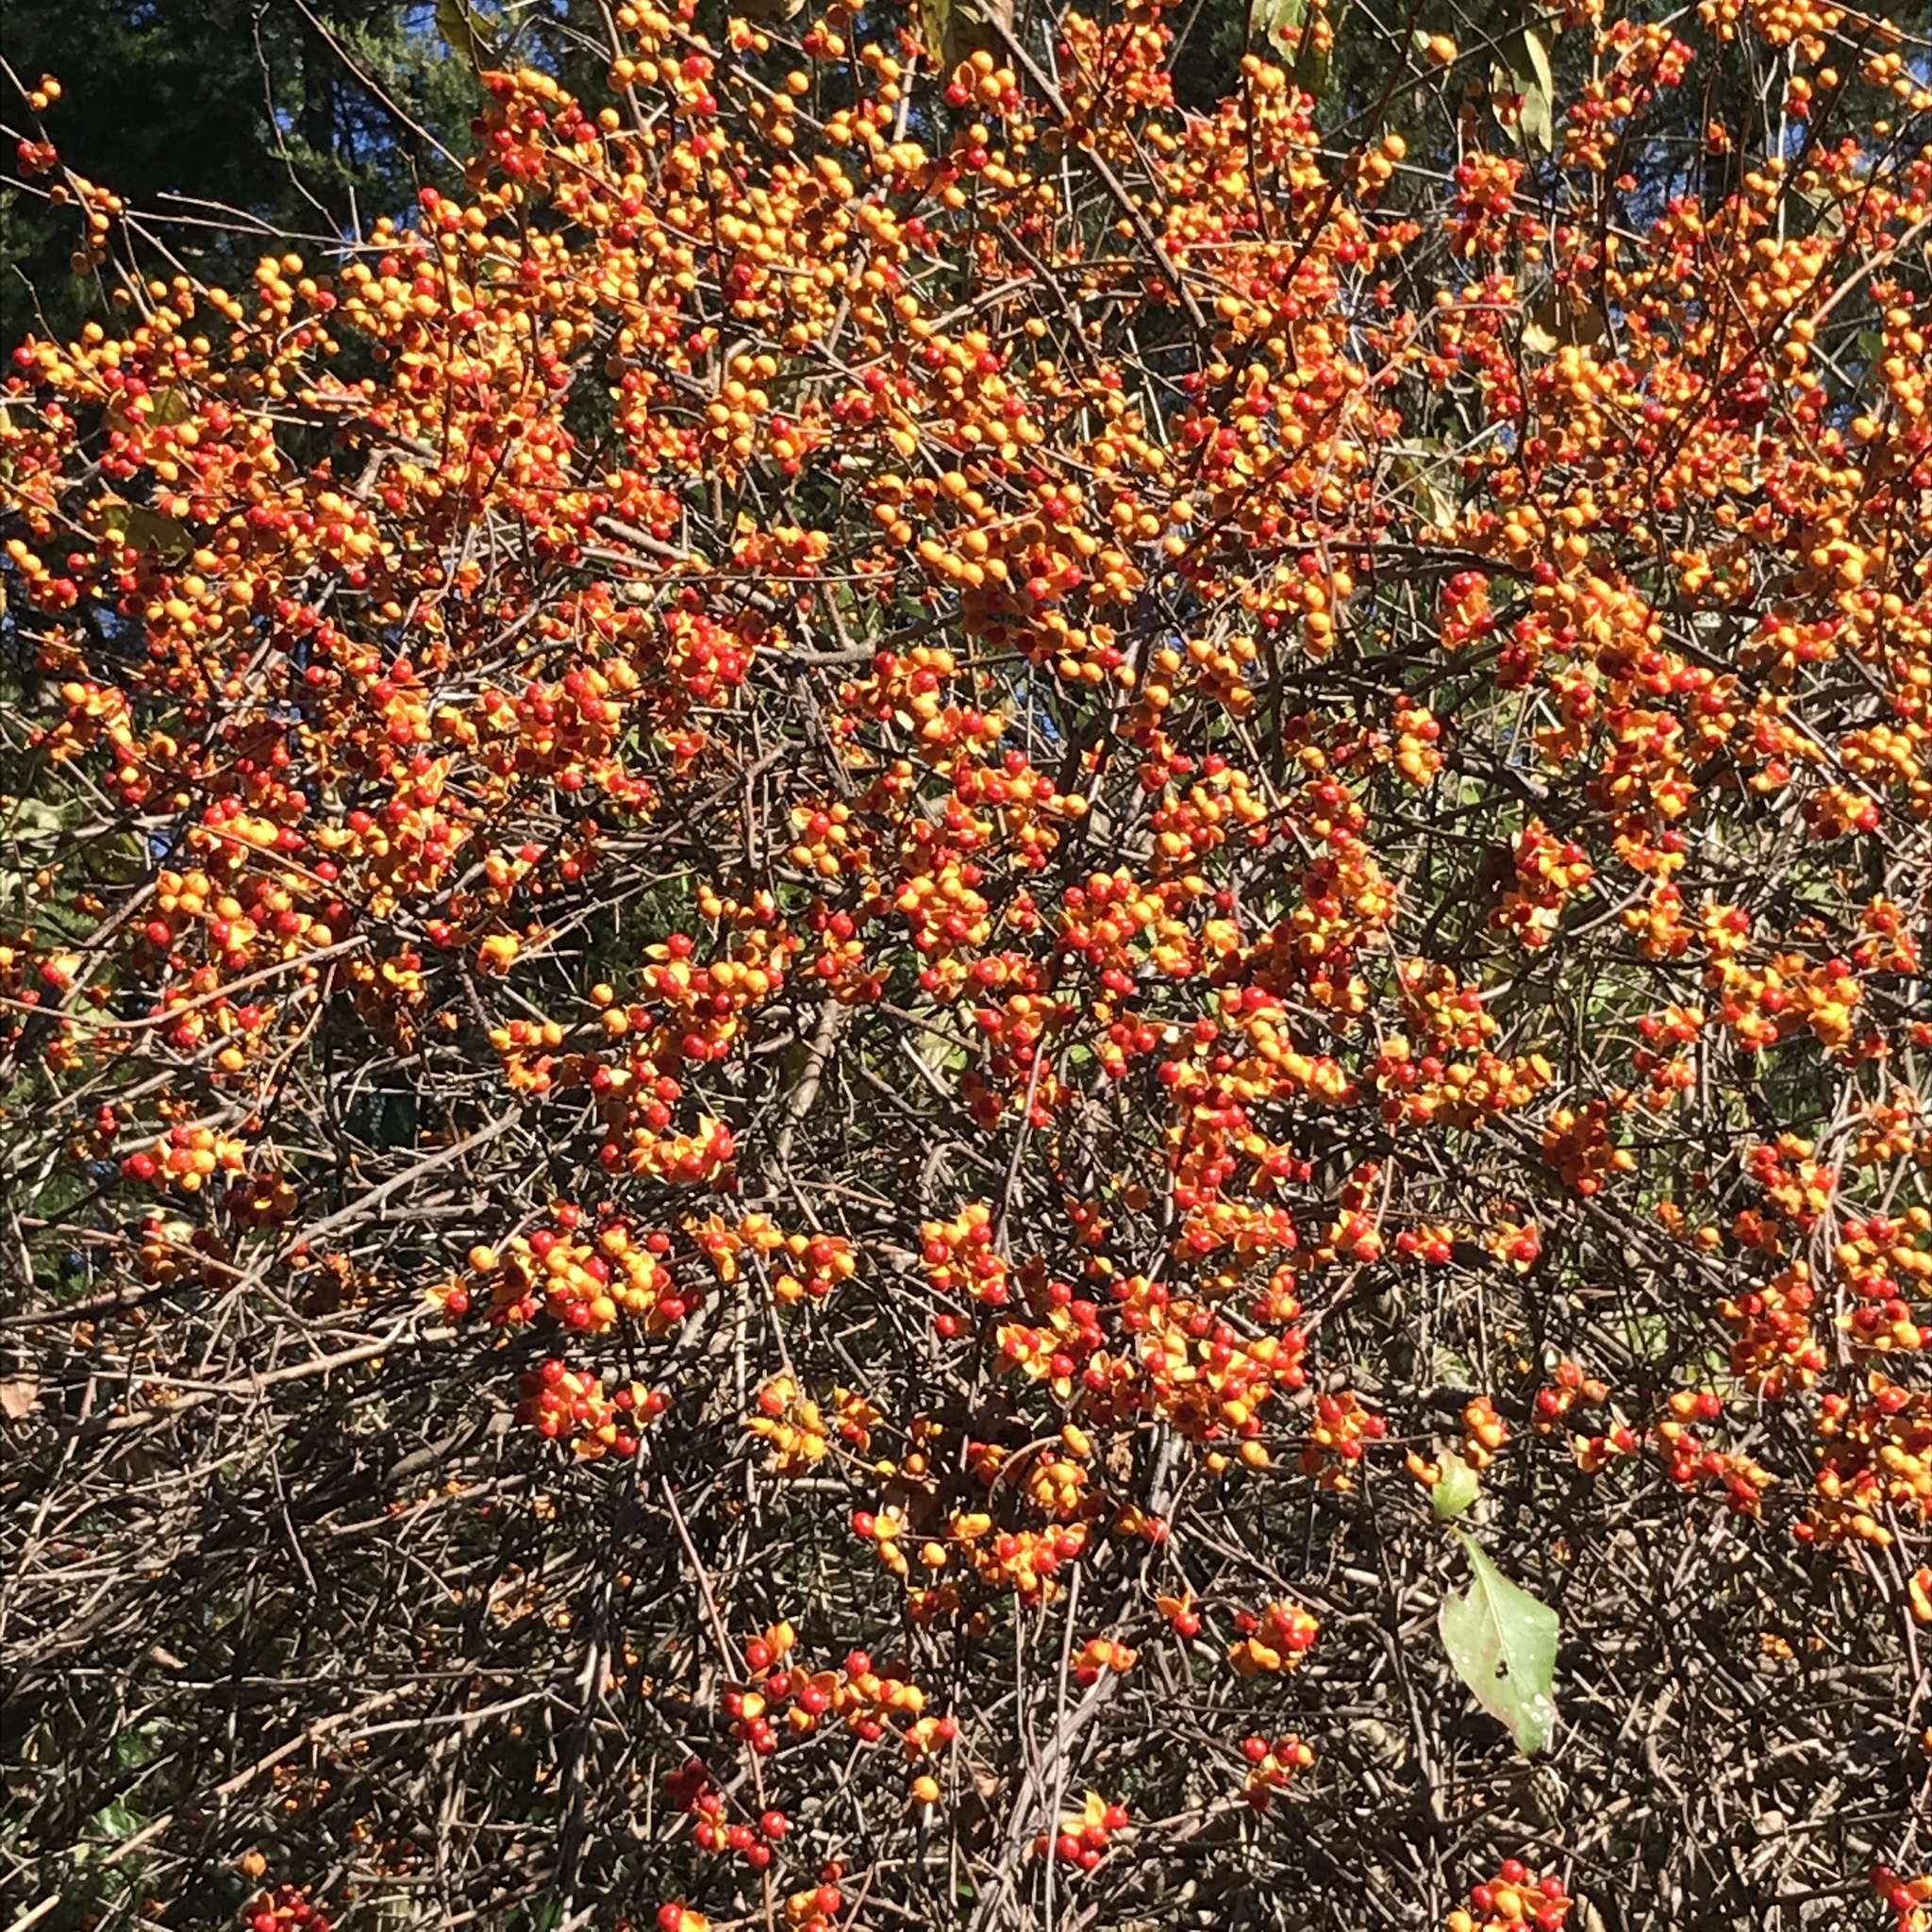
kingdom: Plantae
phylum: Tracheophyta
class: Magnoliopsida
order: Celastrales
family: Celastraceae
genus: Celastrus
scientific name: Celastrus orbiculatus
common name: Oriental bittersweet
